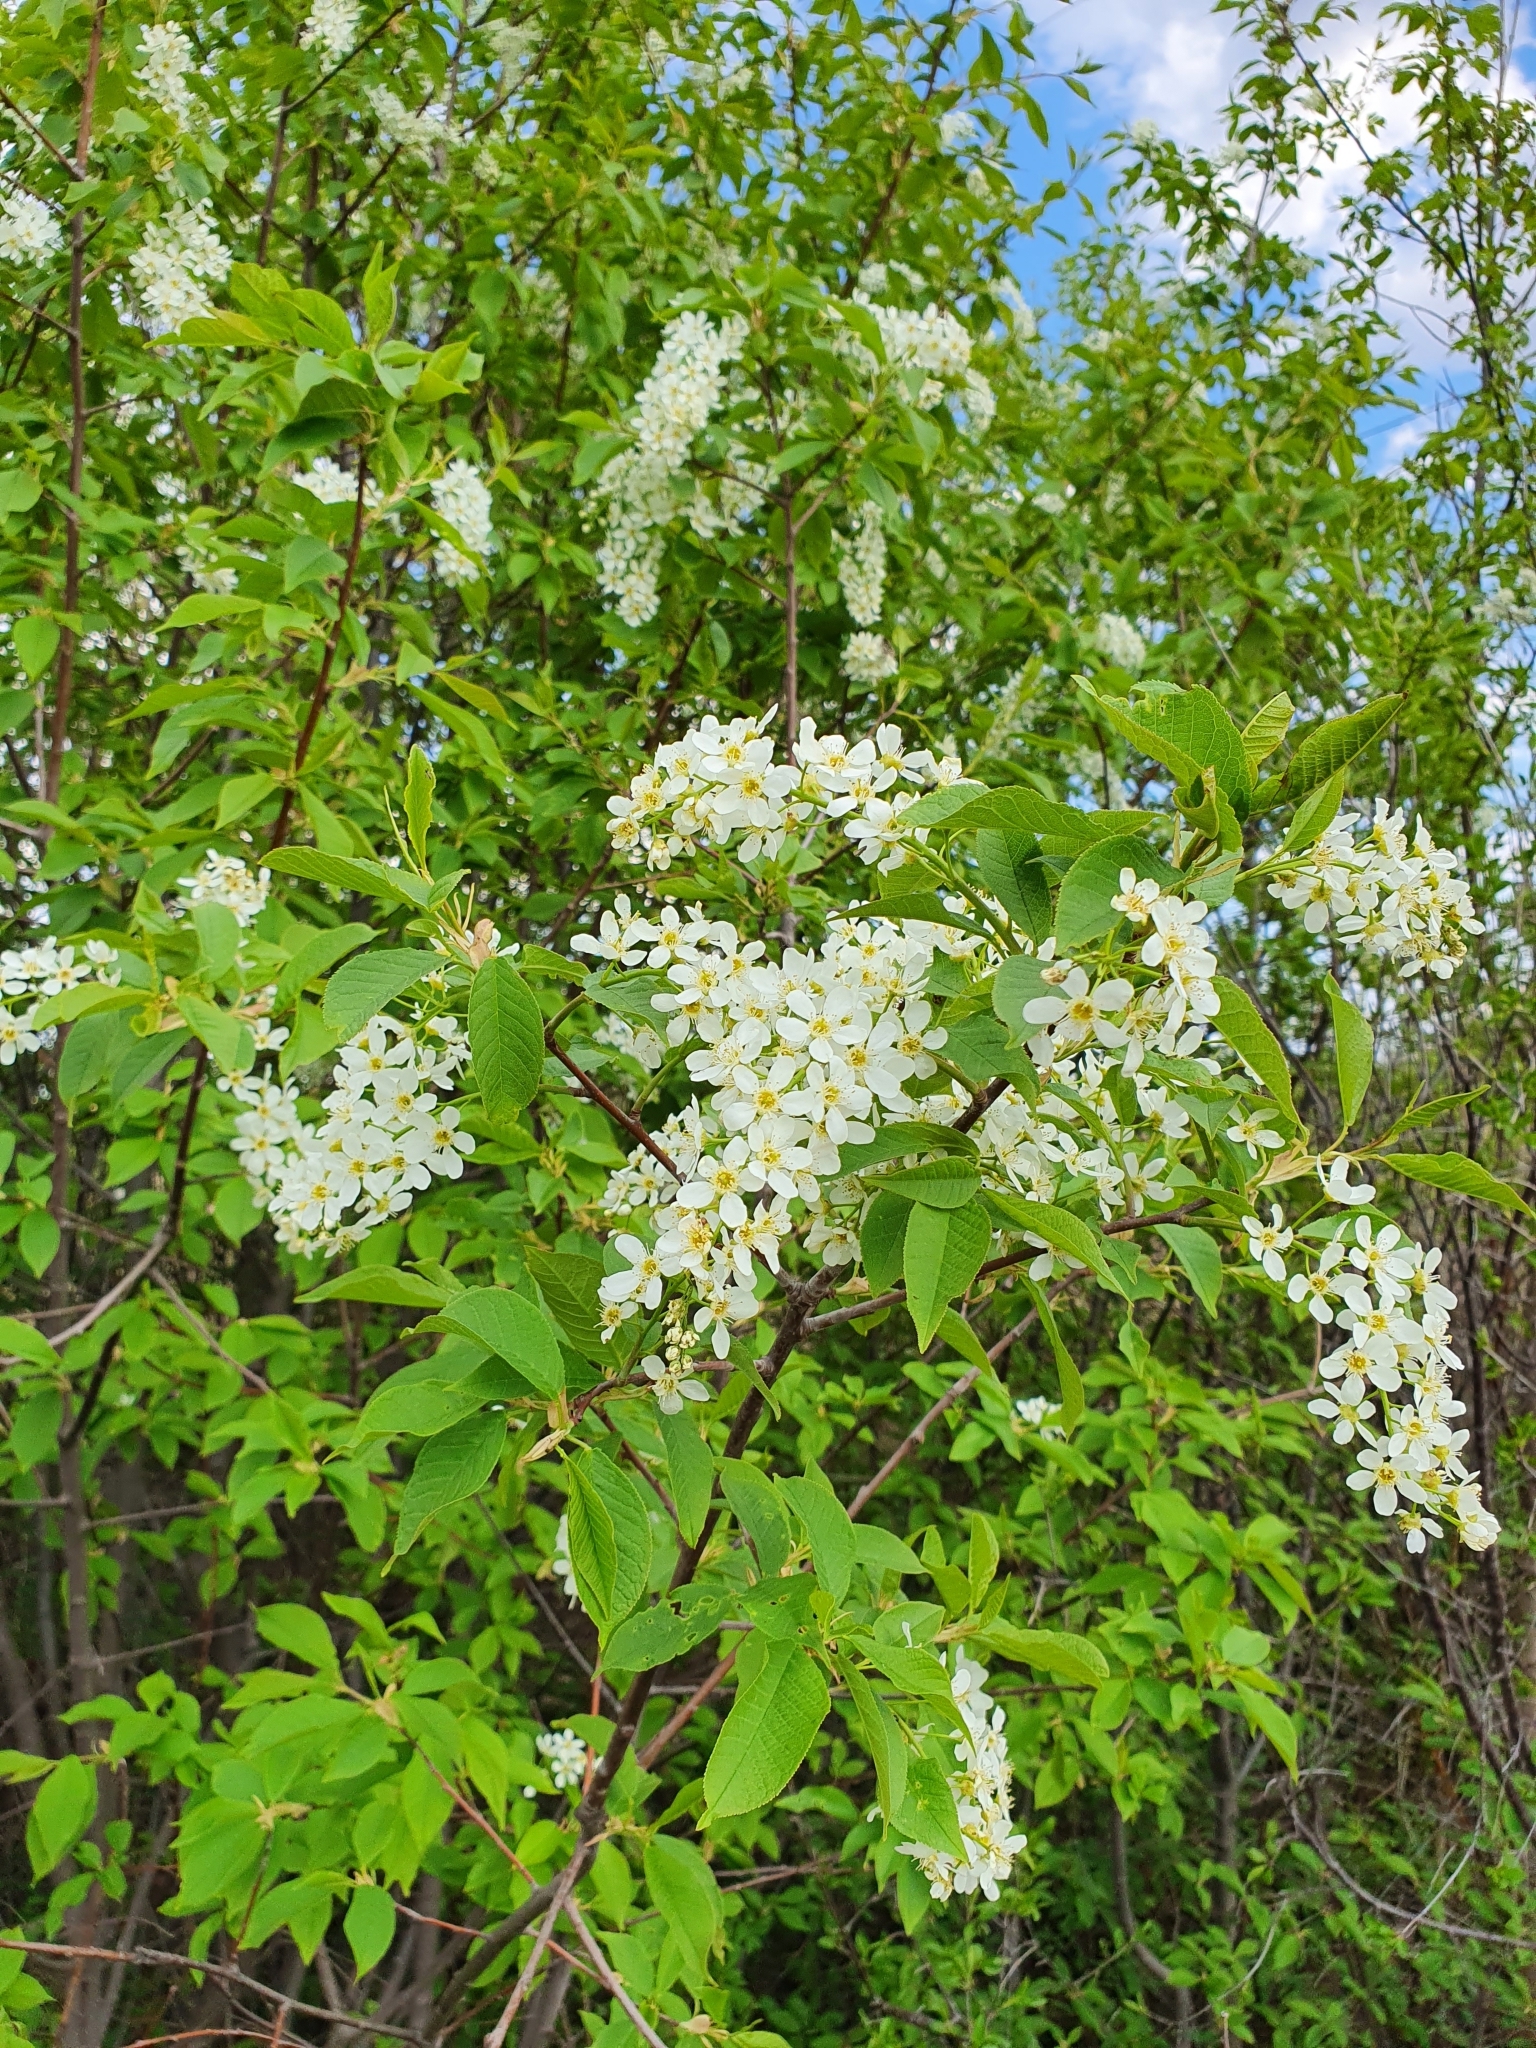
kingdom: Plantae
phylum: Tracheophyta
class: Magnoliopsida
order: Rosales
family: Rosaceae
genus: Prunus
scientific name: Prunus padus
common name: Bird cherry
